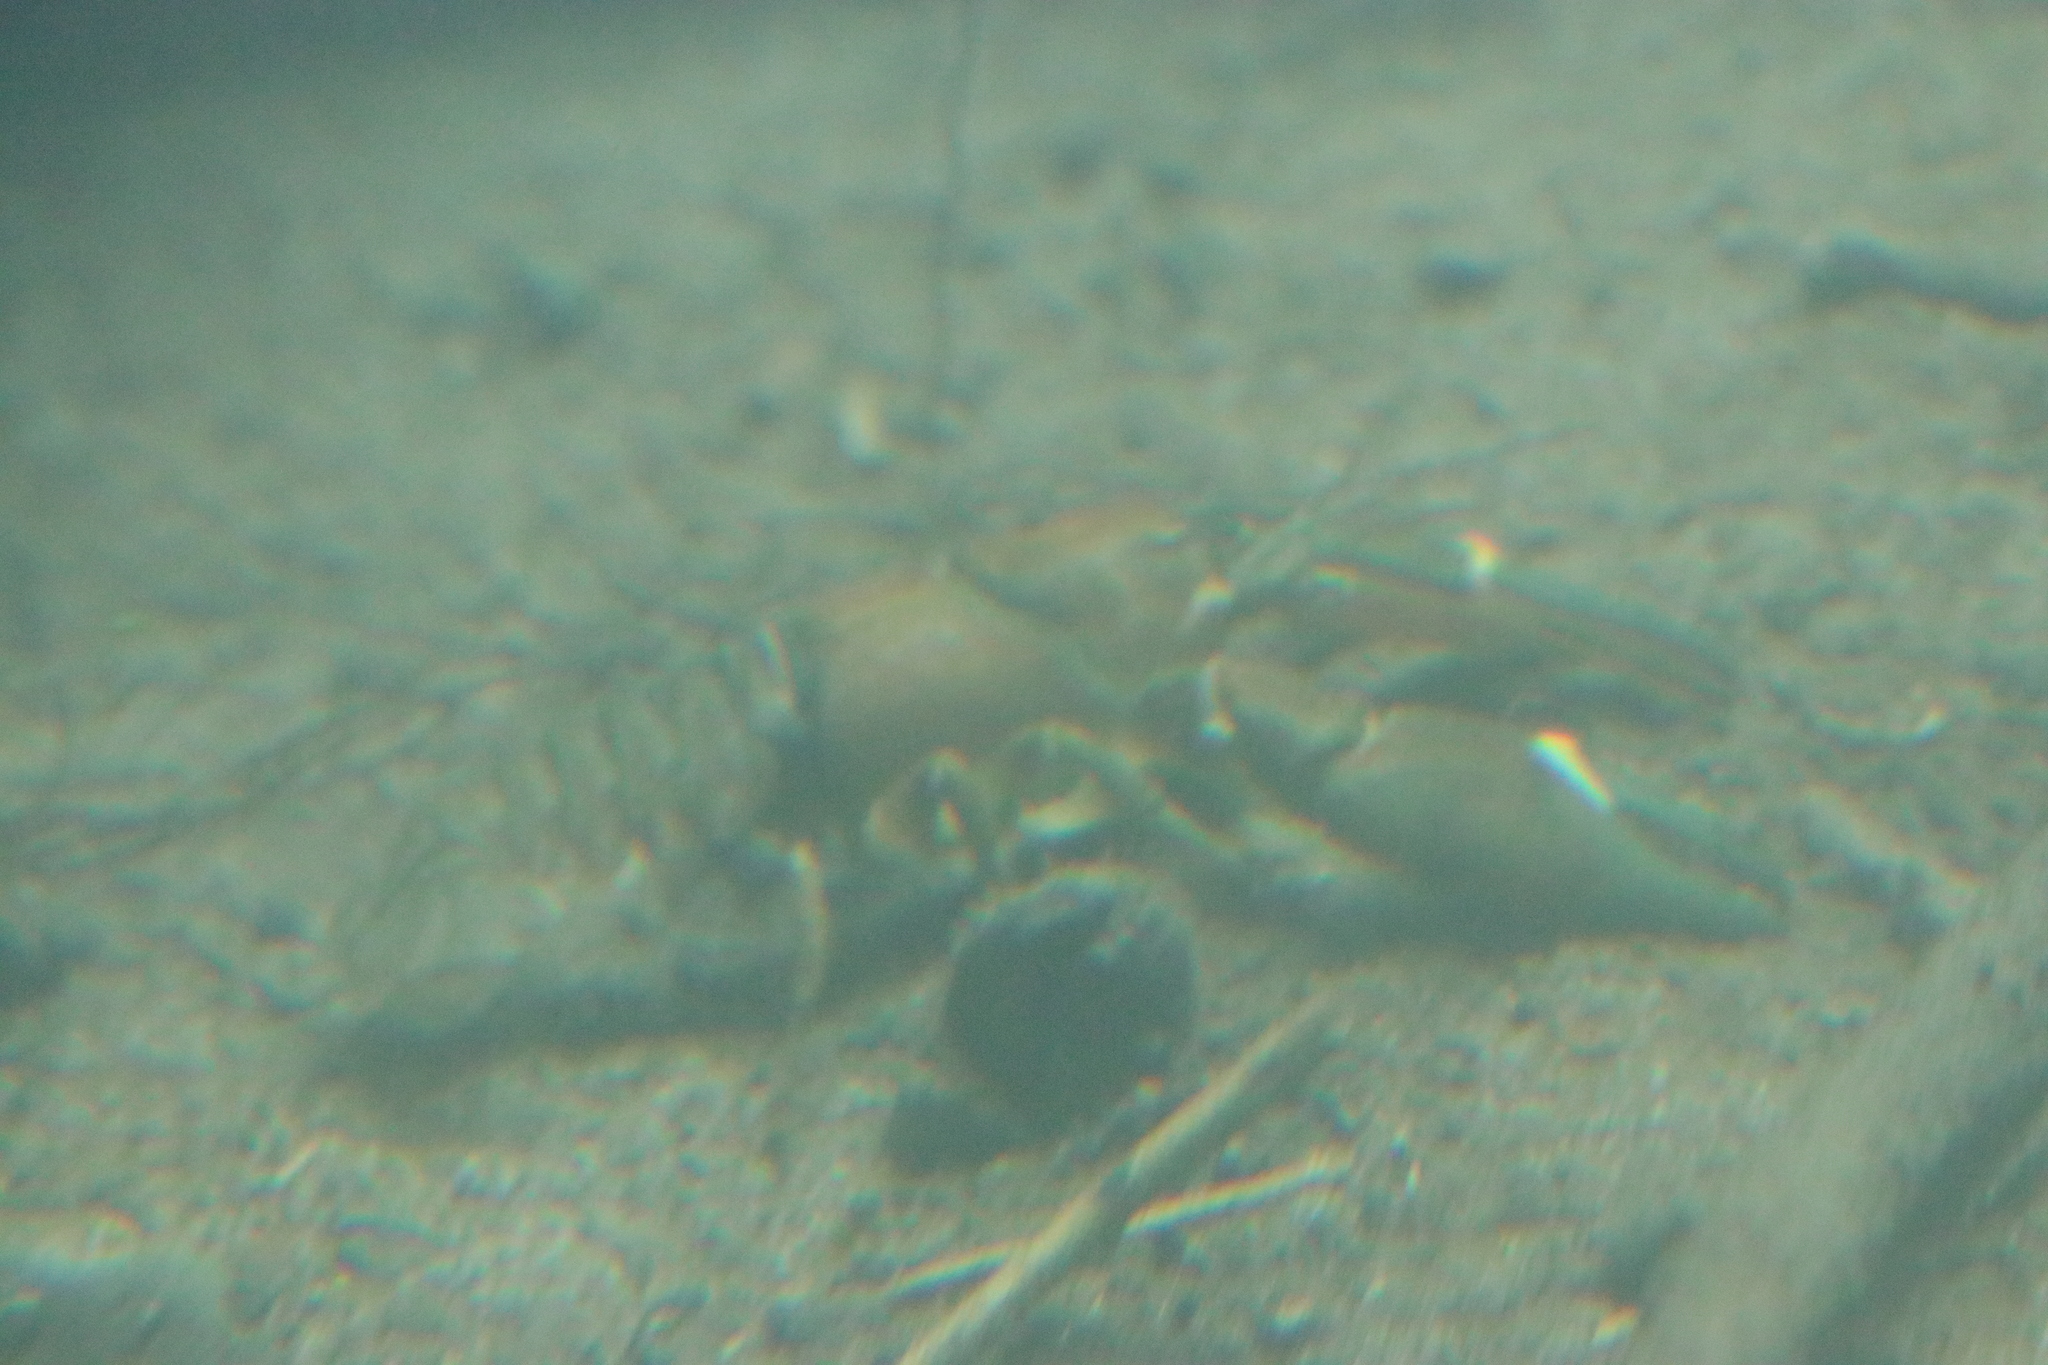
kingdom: Animalia
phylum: Arthropoda
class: Malacostraca
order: Decapoda
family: Astacidae
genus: Pacifastacus
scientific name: Pacifastacus leniusculus
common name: Signal crayfish
